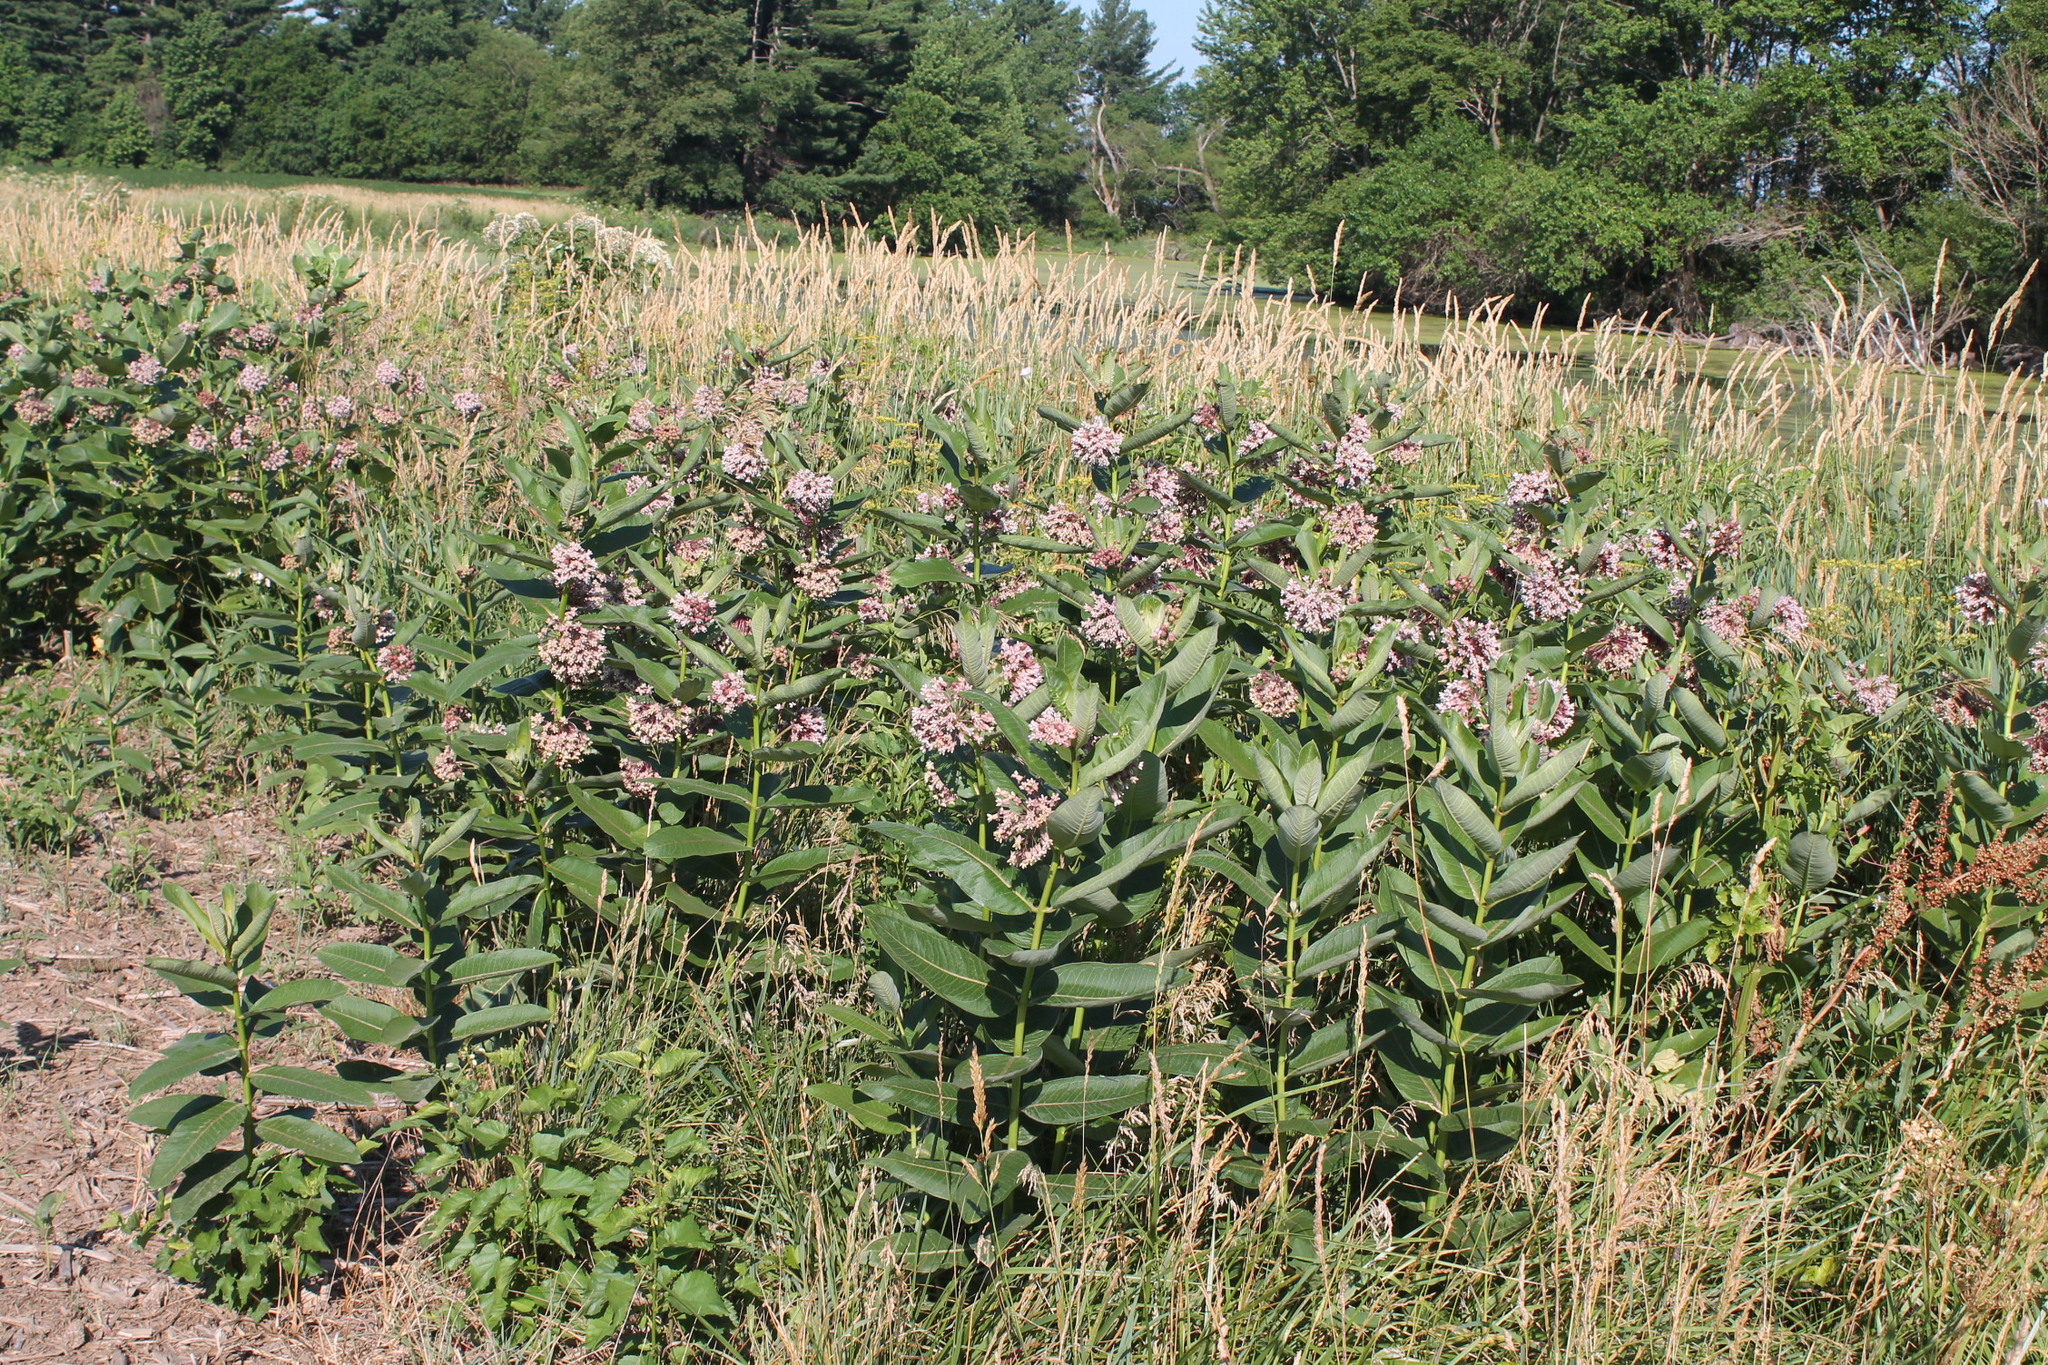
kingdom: Plantae
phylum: Tracheophyta
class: Magnoliopsida
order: Gentianales
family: Apocynaceae
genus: Asclepias
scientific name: Asclepias syriaca
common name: Common milkweed
